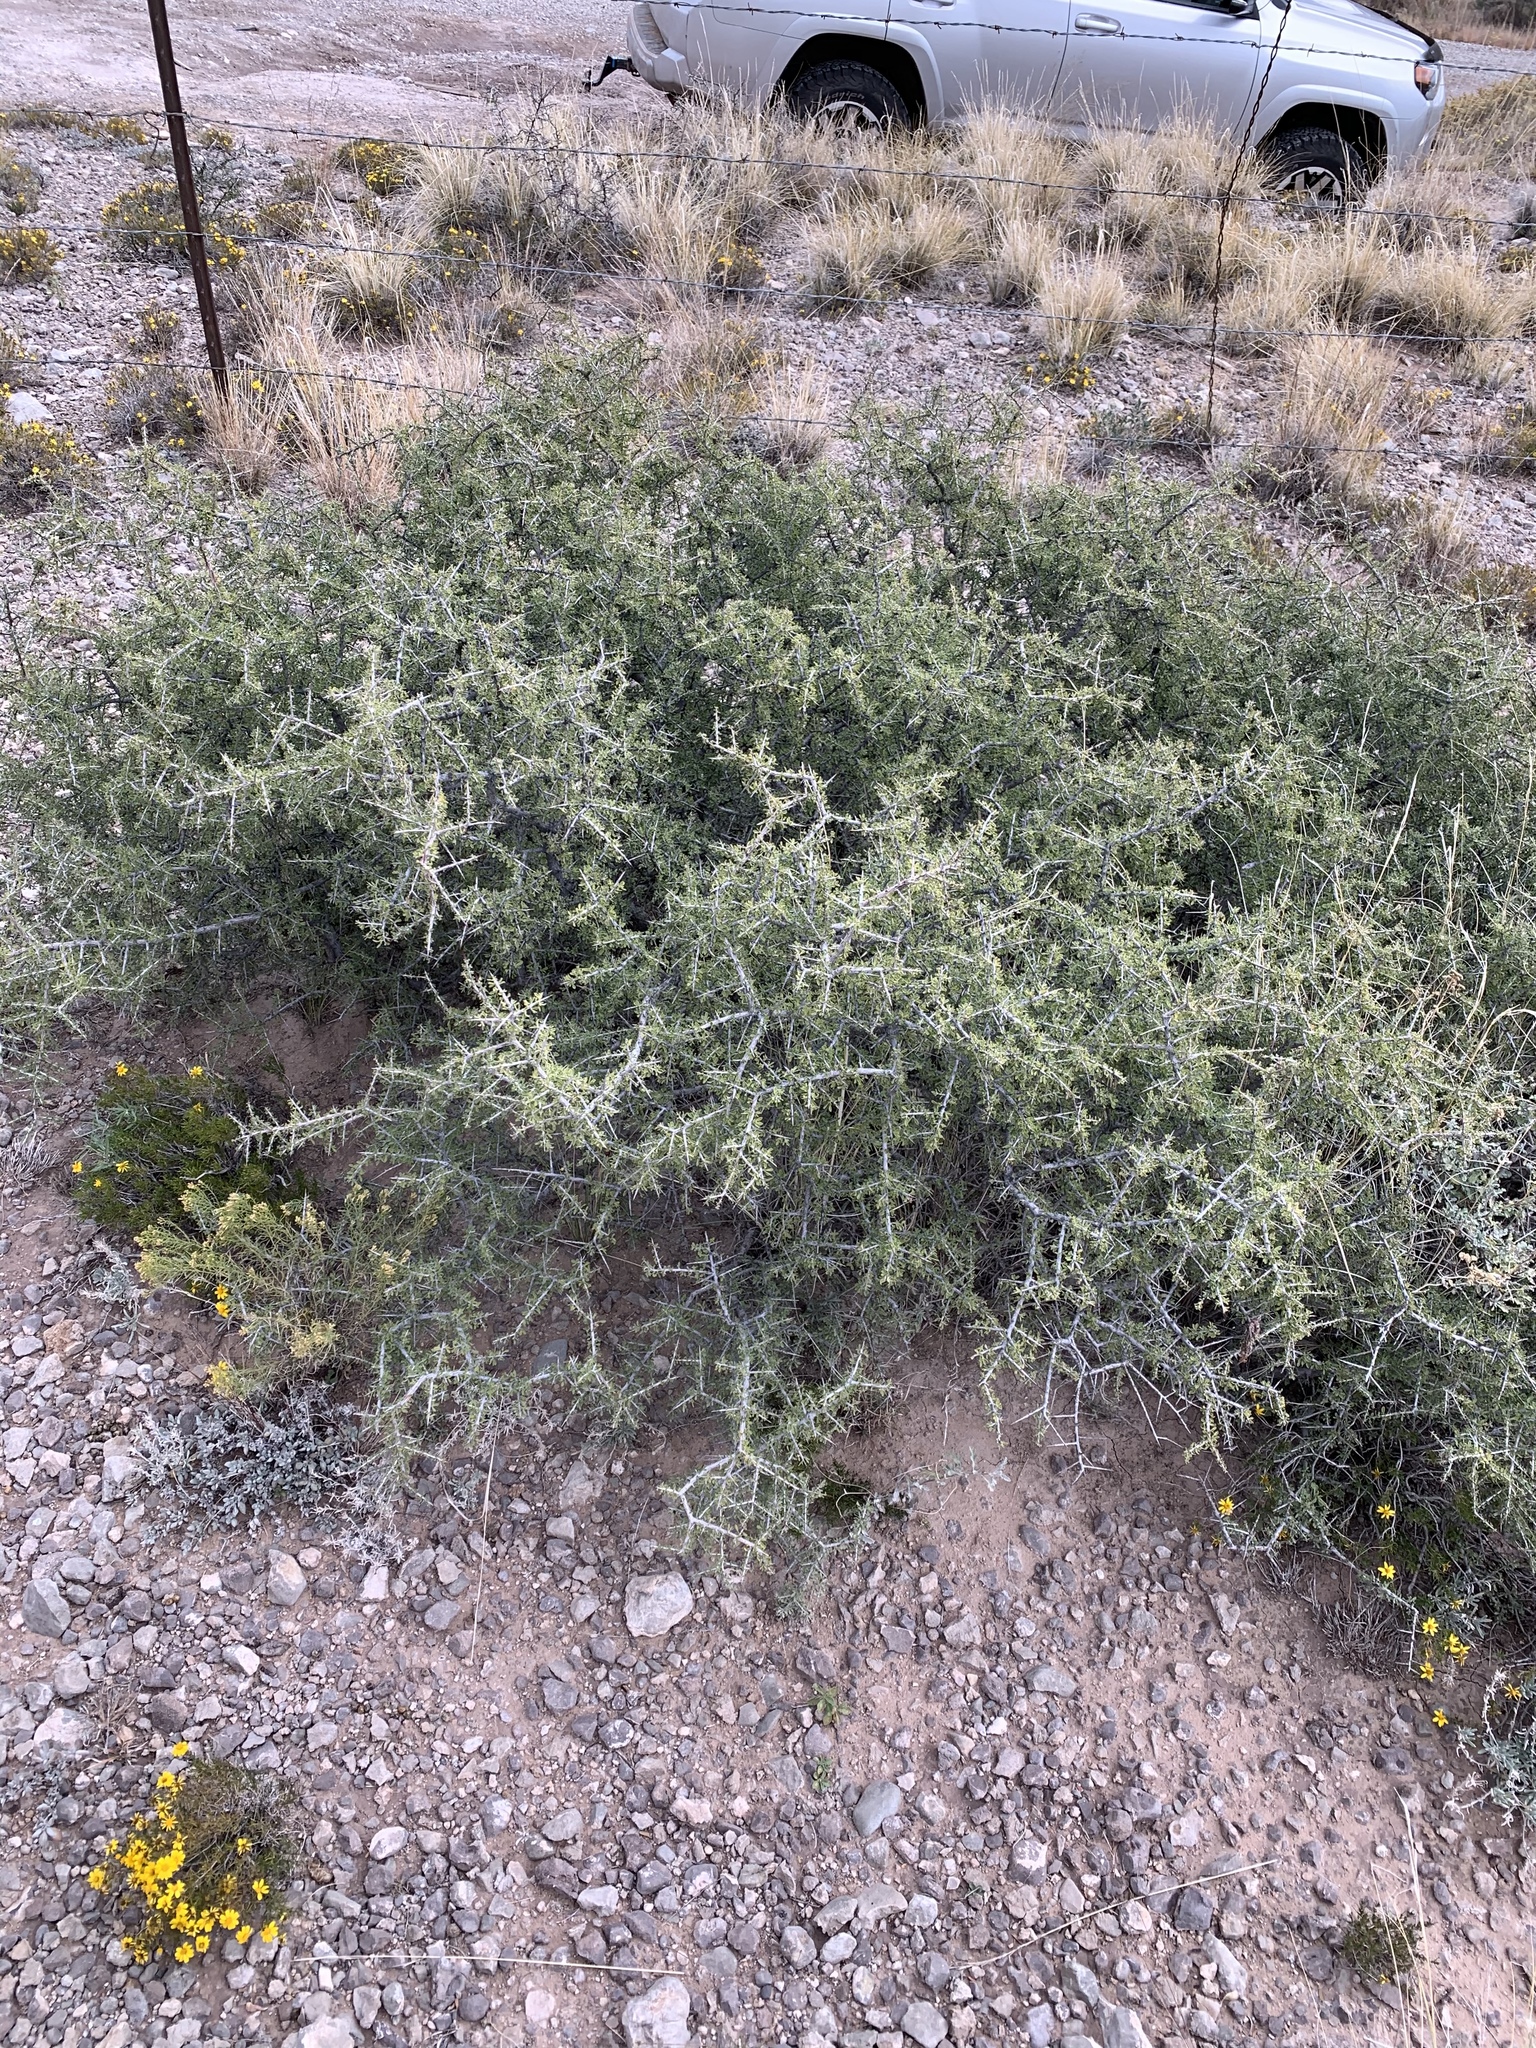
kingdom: Plantae
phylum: Tracheophyta
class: Magnoliopsida
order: Rosales
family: Rhamnaceae
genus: Condalia
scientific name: Condalia warnockii
